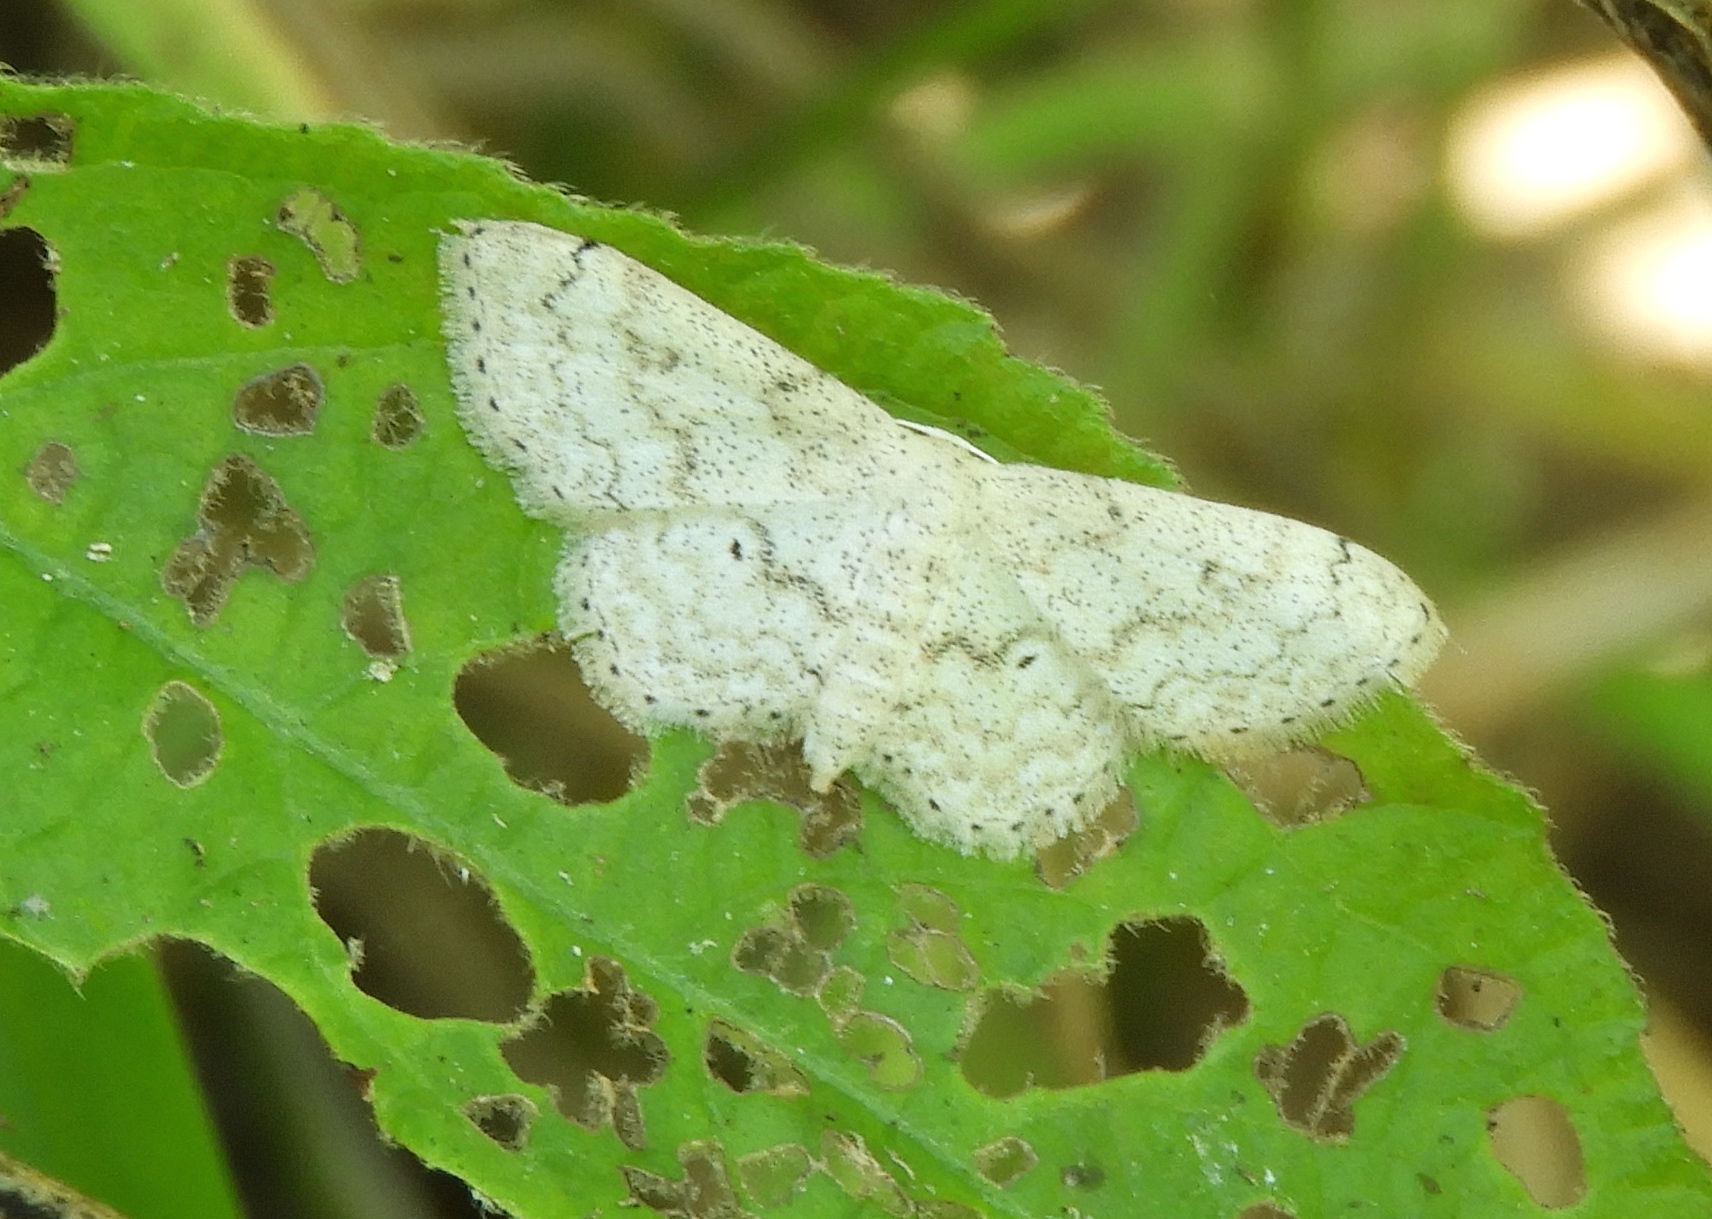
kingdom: Animalia
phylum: Arthropoda
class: Insecta
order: Lepidoptera
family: Geometridae
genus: Idaea
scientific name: Idaea
